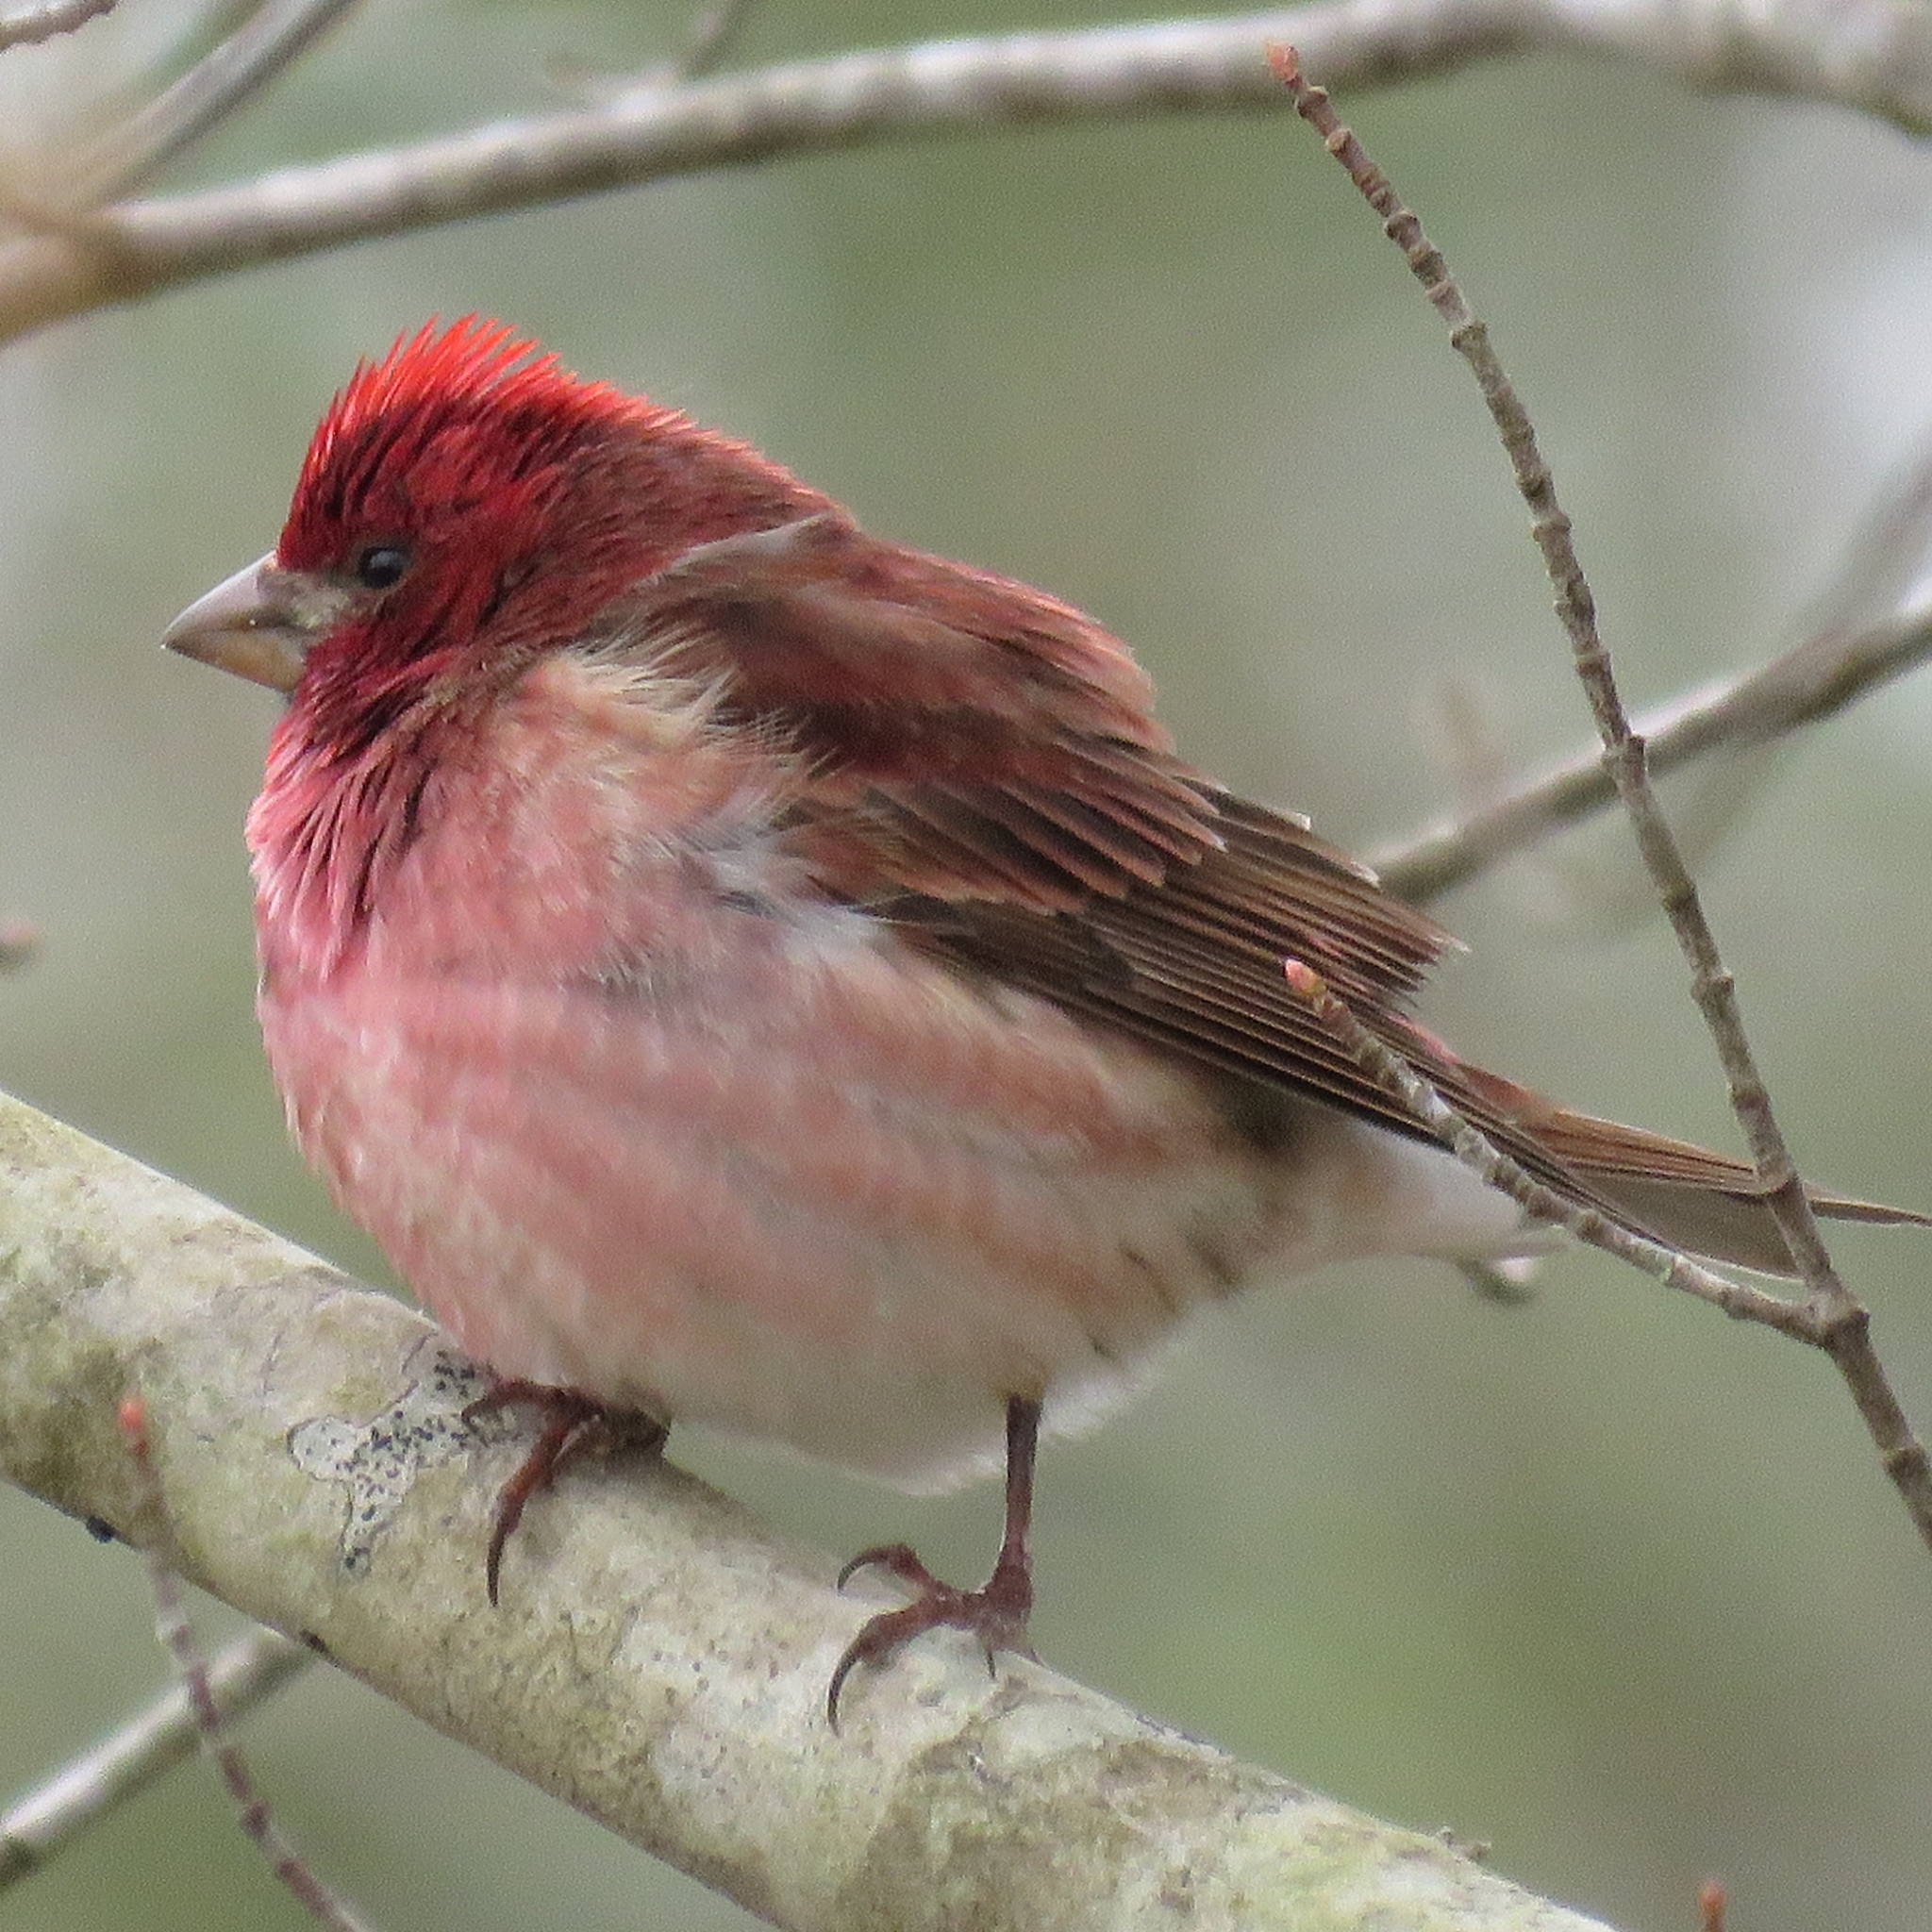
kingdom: Animalia
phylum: Chordata
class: Aves
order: Passeriformes
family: Fringillidae
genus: Haemorhous
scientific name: Haemorhous purpureus
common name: Purple finch
